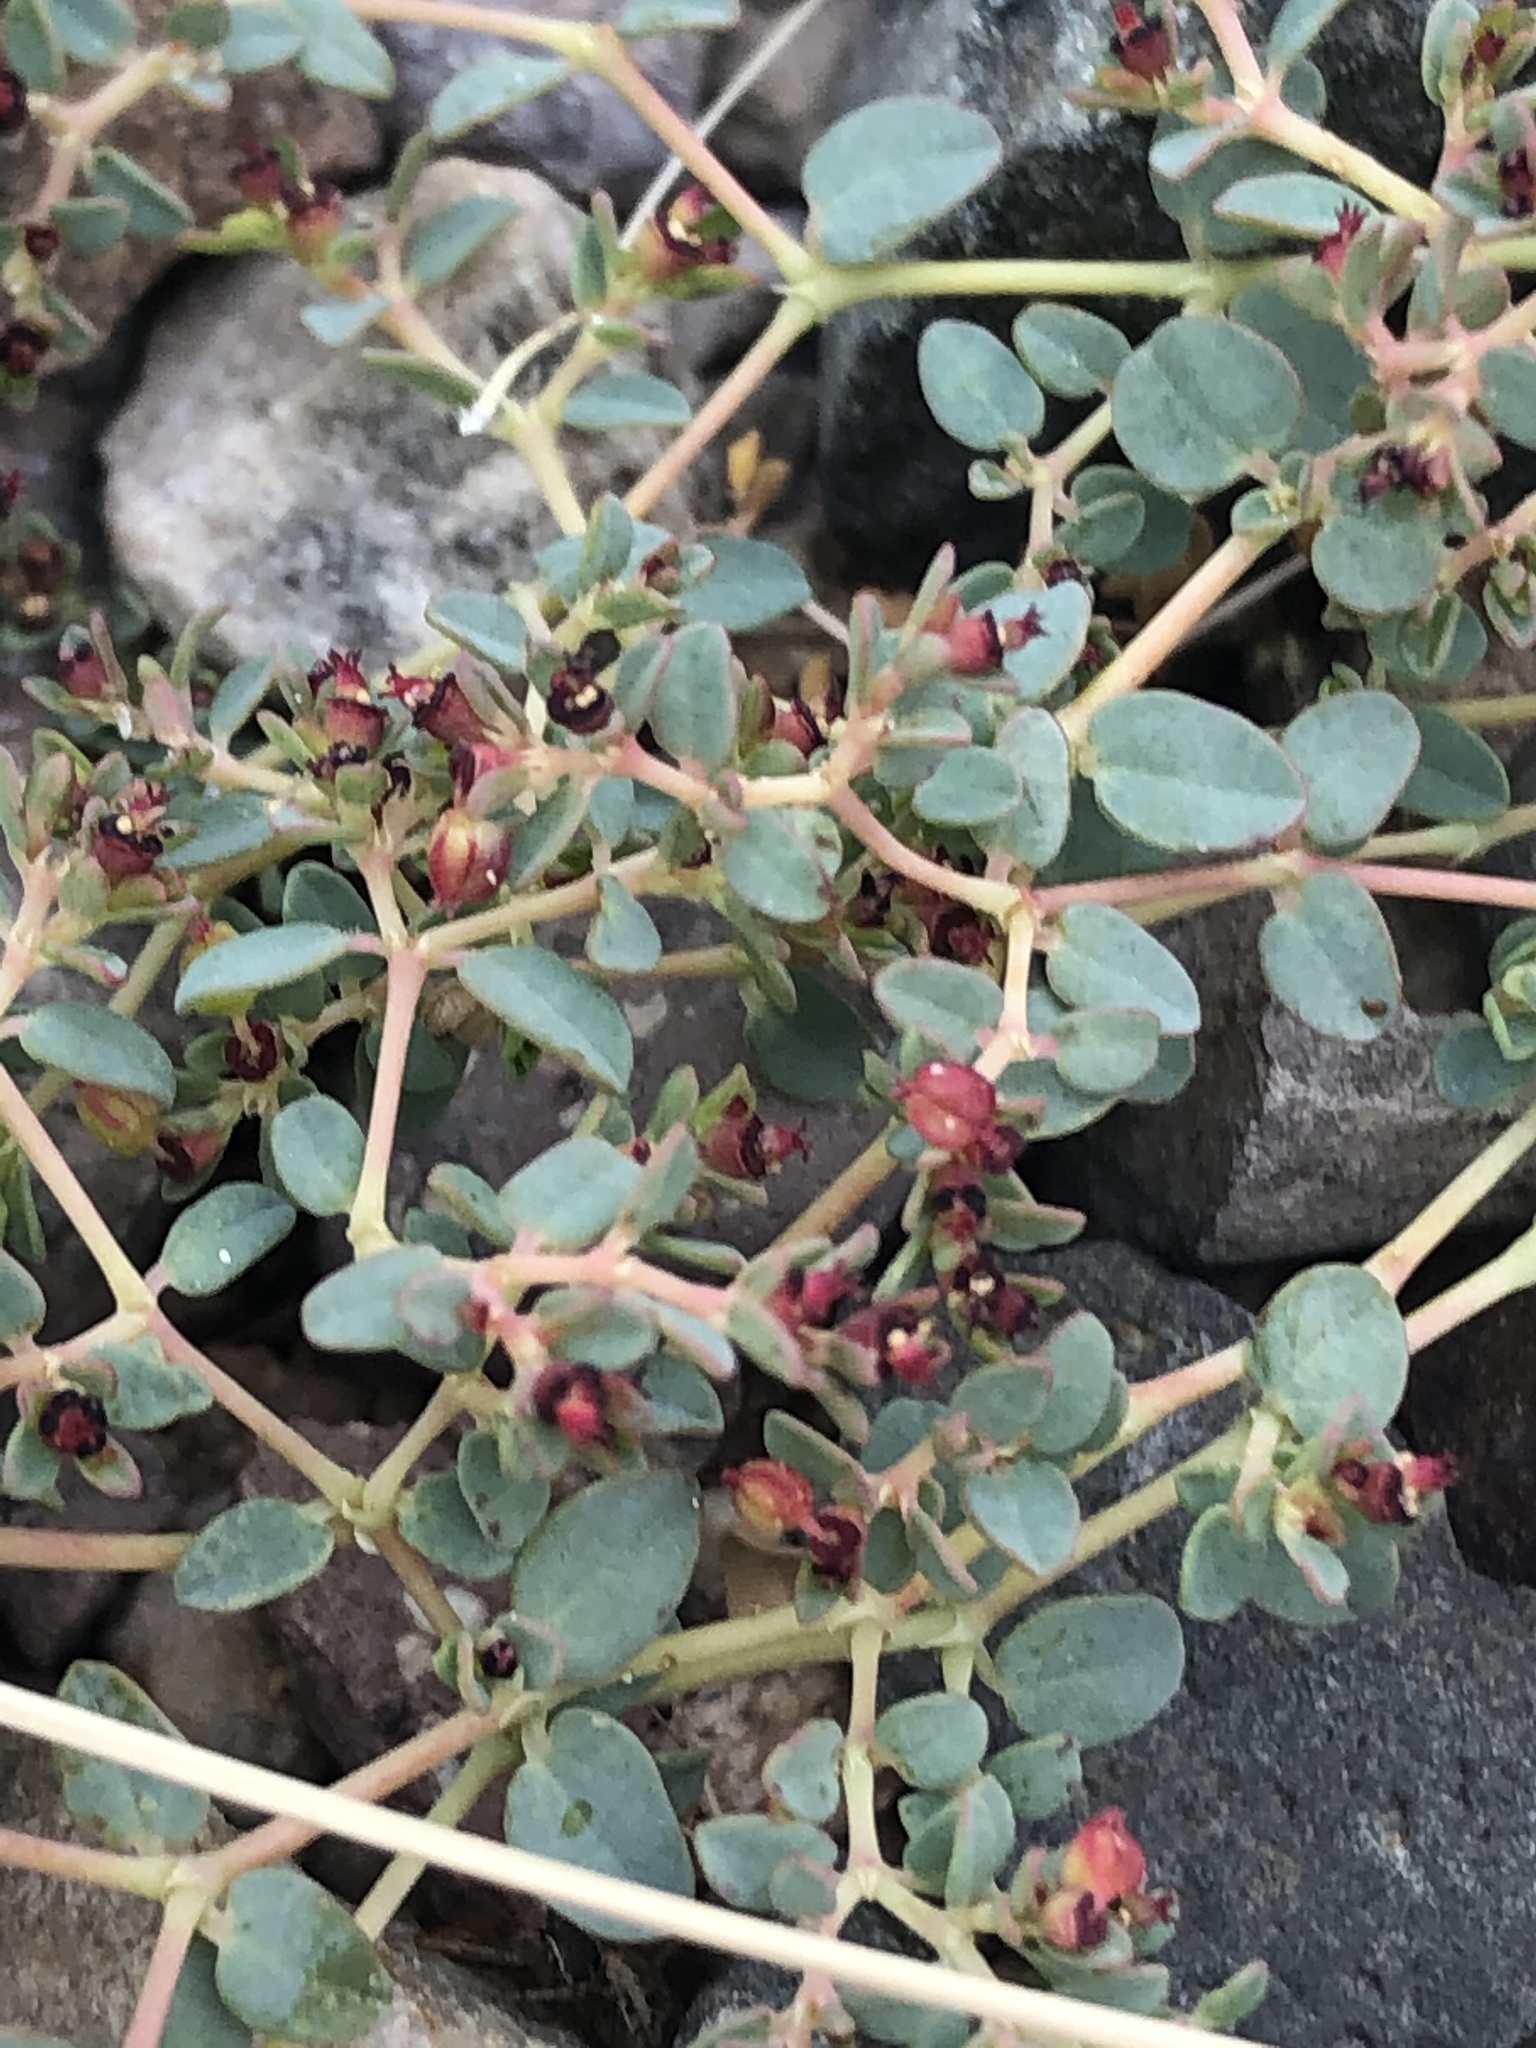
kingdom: Plantae
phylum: Tracheophyta
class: Magnoliopsida
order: Malpighiales
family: Euphorbiaceae
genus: Euphorbia
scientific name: Euphorbia polycarpa
